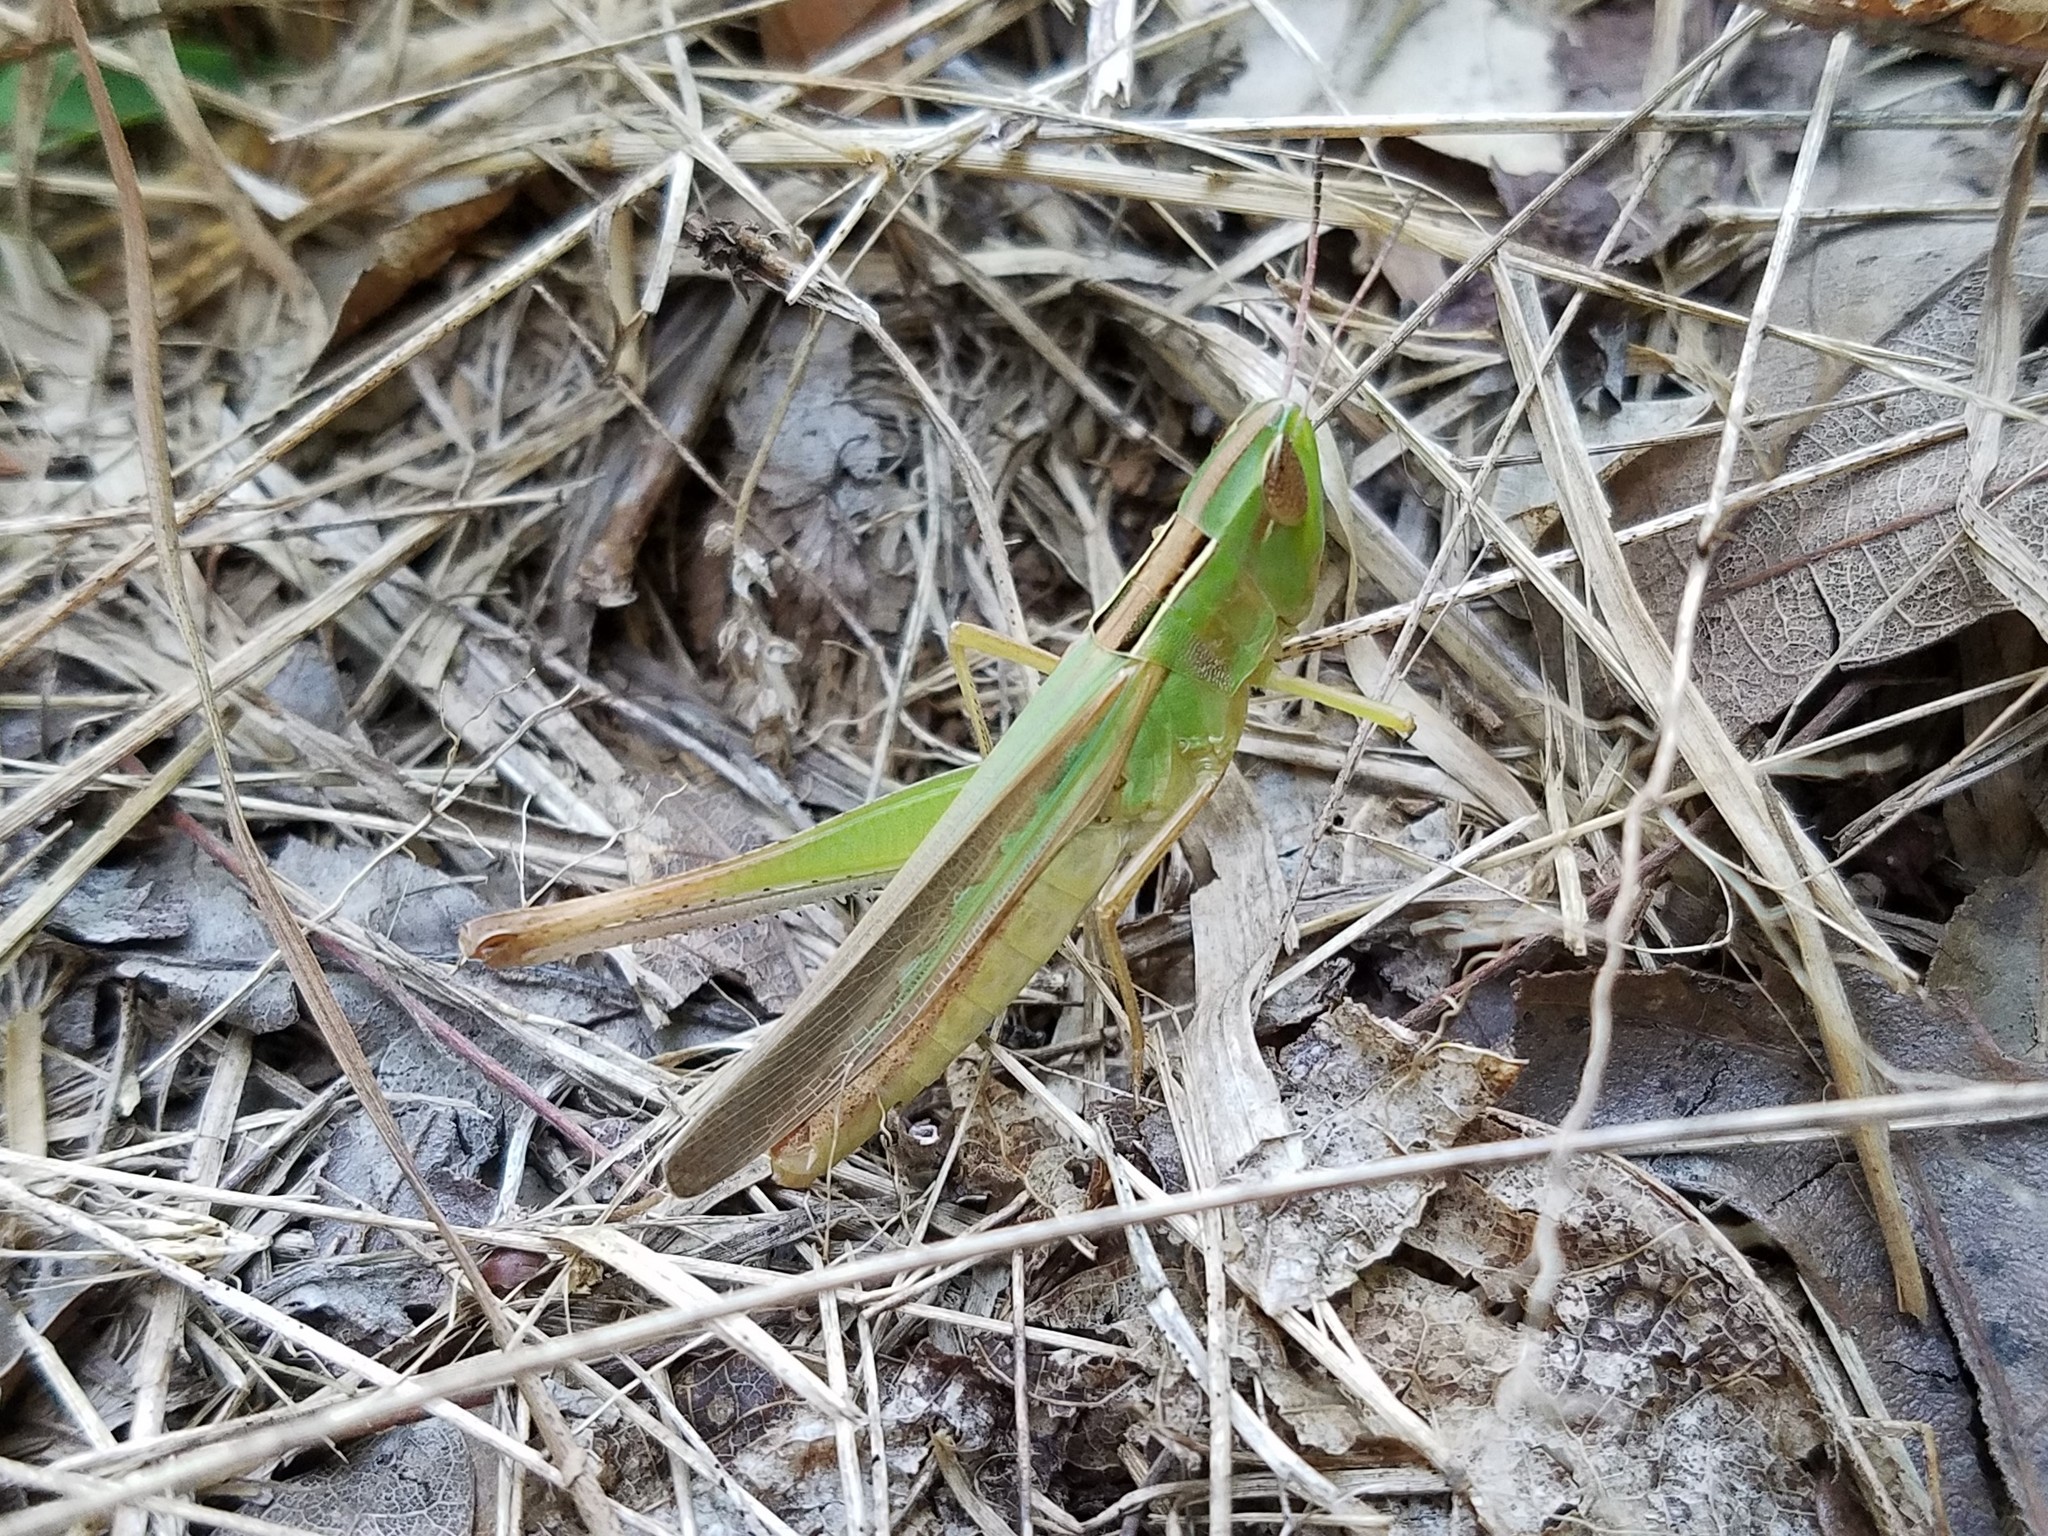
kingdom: Animalia
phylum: Arthropoda
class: Insecta
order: Orthoptera
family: Acrididae
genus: Syrbula
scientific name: Syrbula admirabilis
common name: Handsome grasshopper
